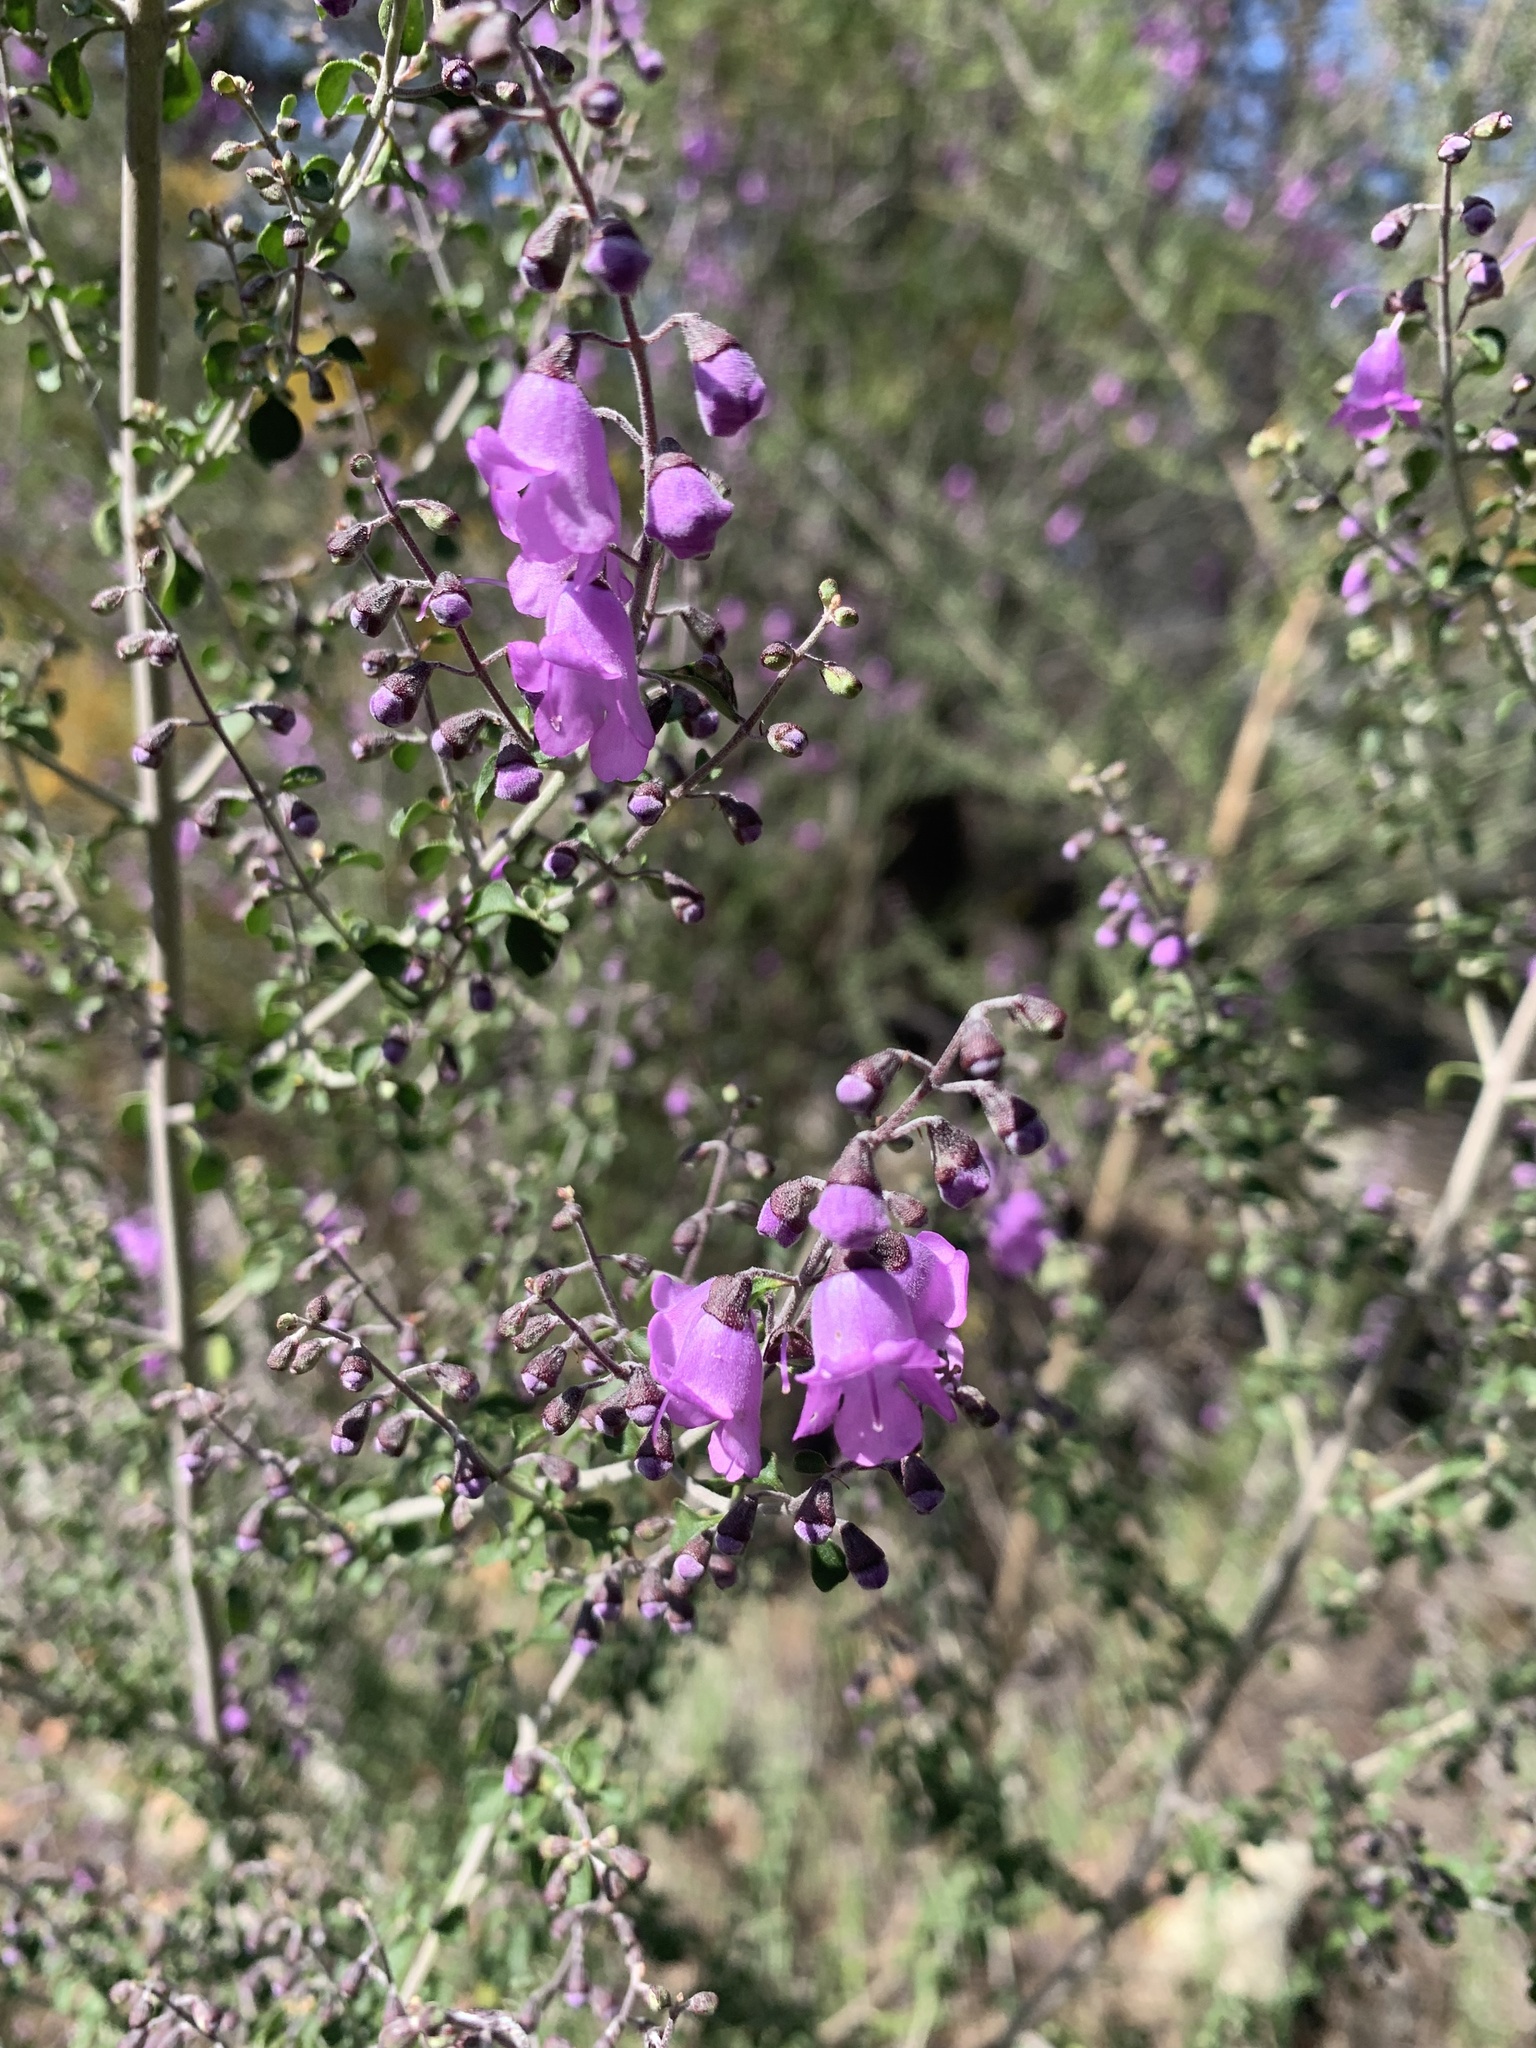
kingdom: Plantae
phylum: Tracheophyta
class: Magnoliopsida
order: Lamiales
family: Lamiaceae
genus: Prostanthera
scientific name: Prostanthera rotundifolia
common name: Round-leaf mintbush
